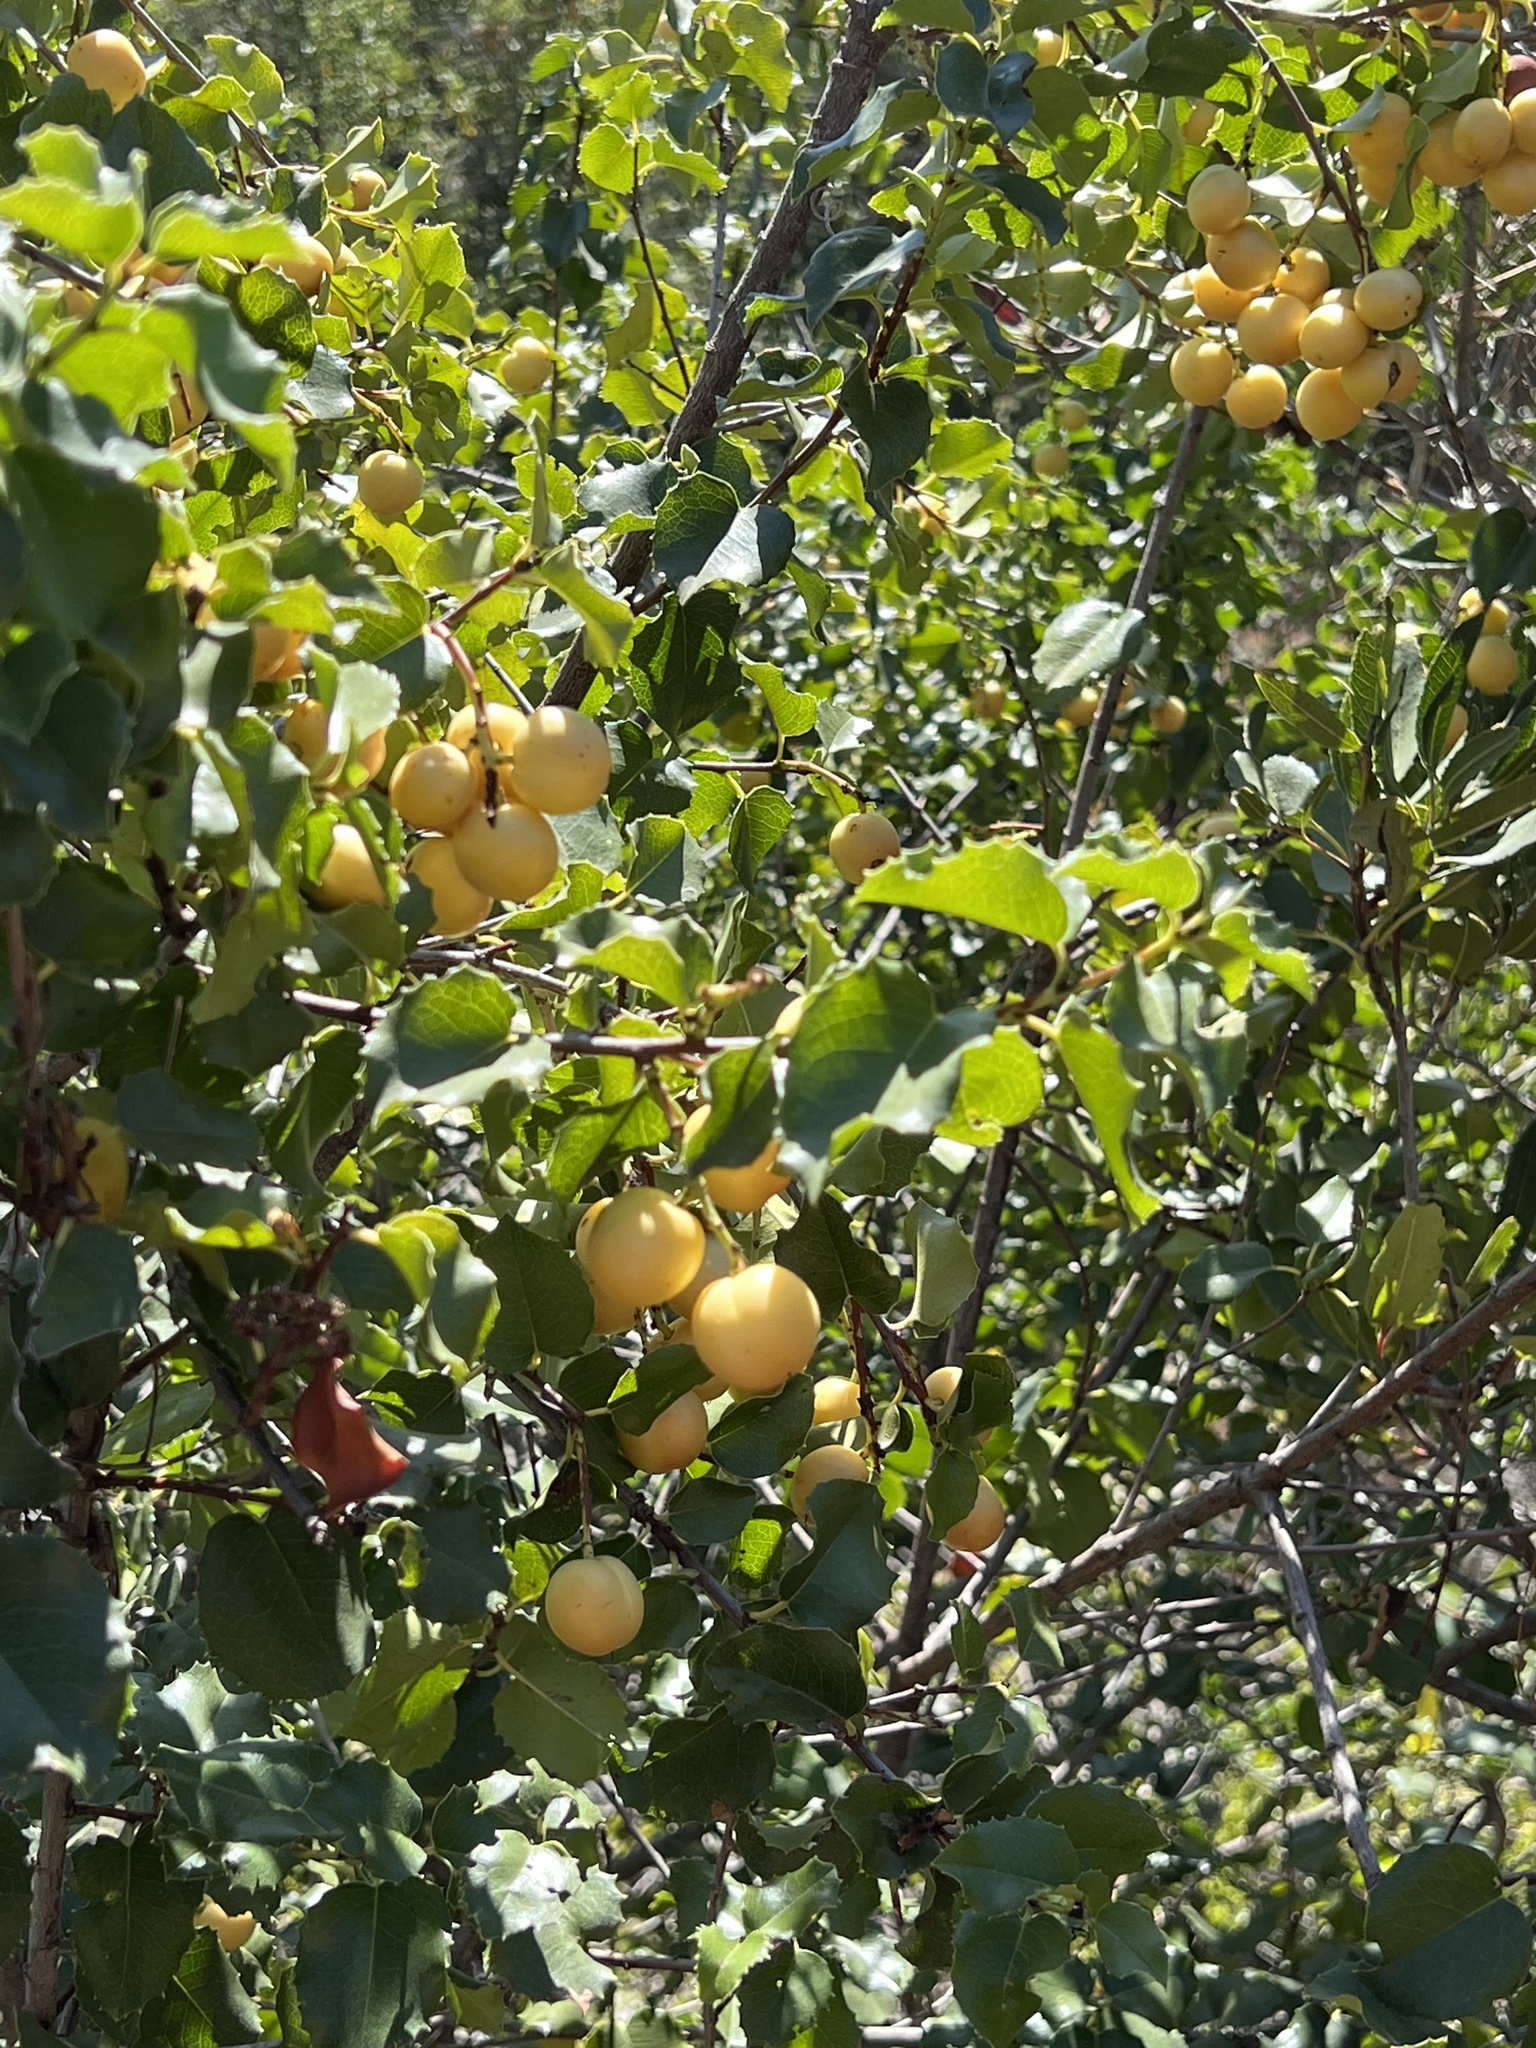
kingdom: Plantae
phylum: Tracheophyta
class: Magnoliopsida
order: Rosales
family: Rosaceae
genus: Prunus
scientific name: Prunus ilicifolia
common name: Hollyleaf cherry
